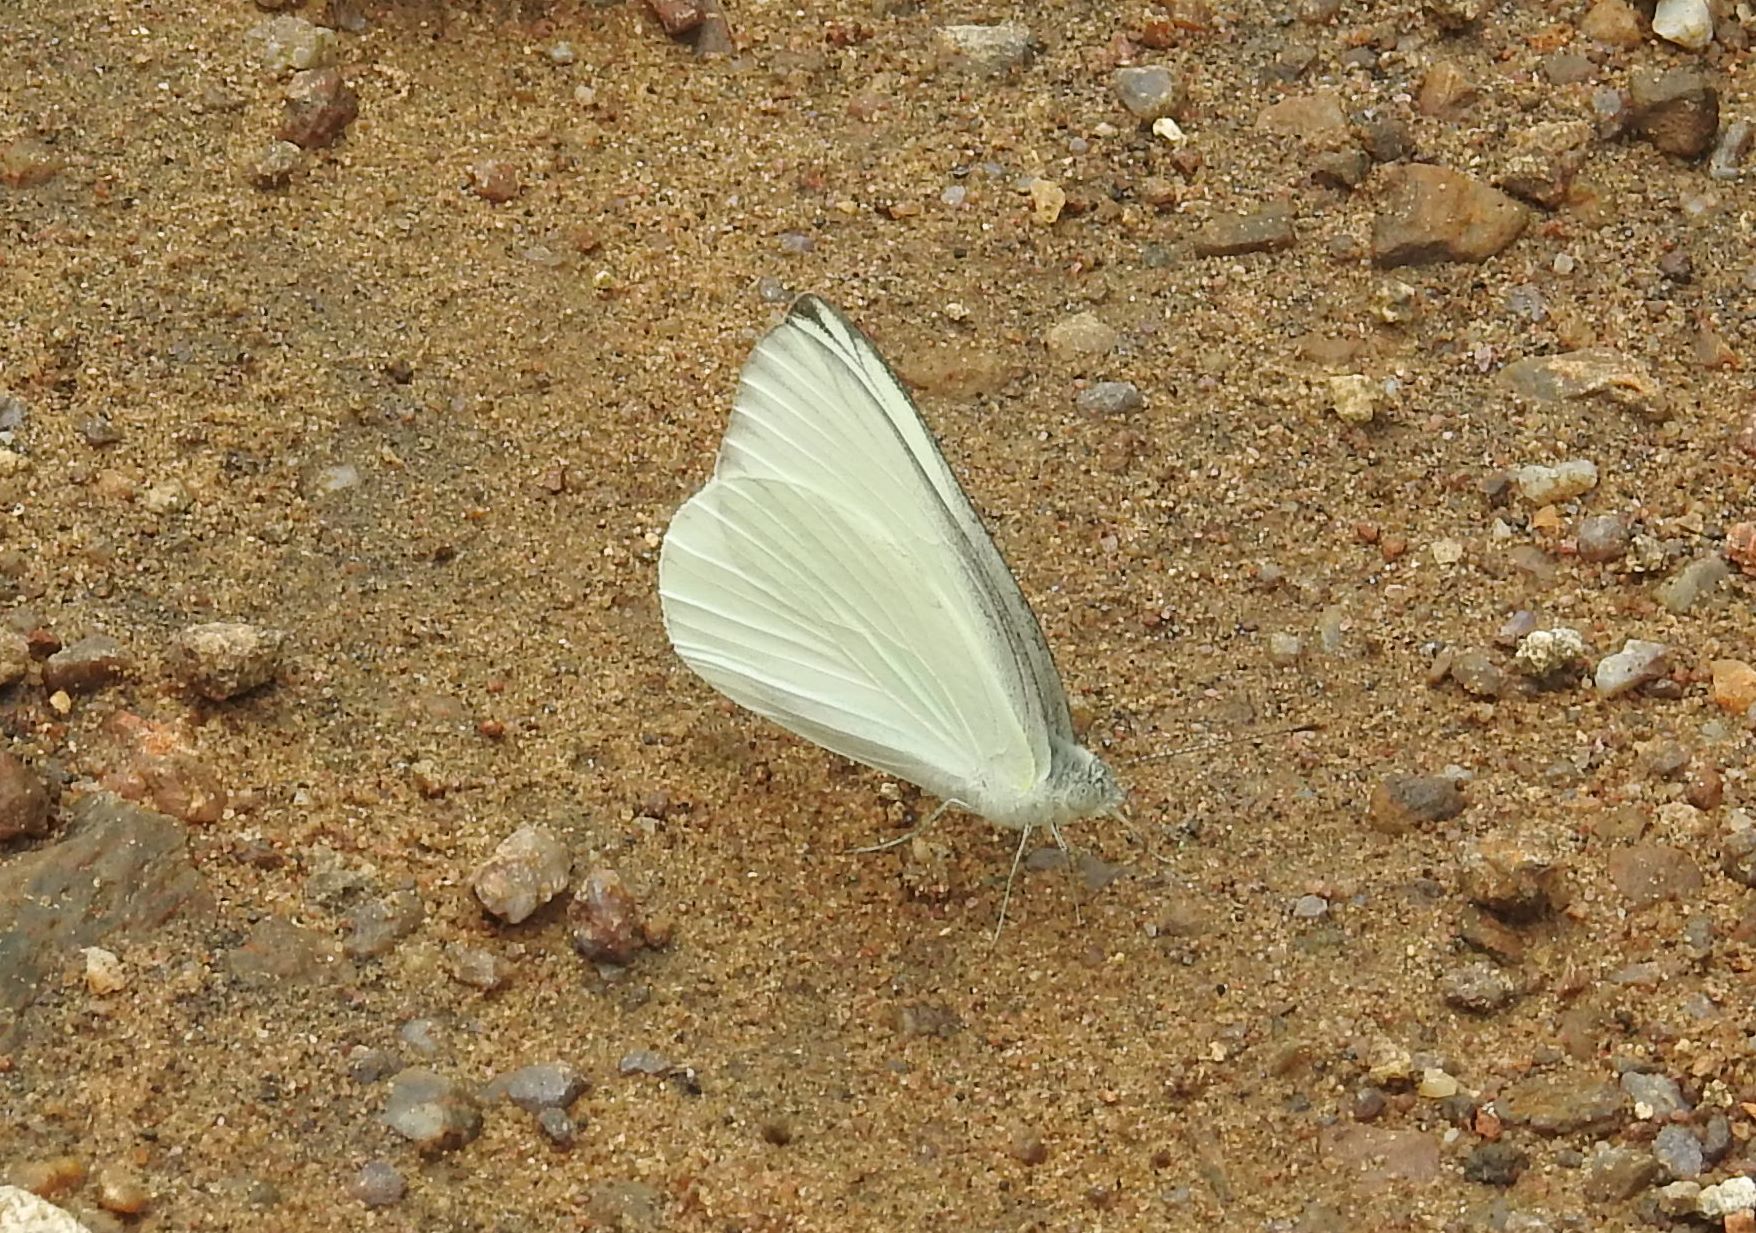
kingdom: Animalia
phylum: Arthropoda
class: Insecta
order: Lepidoptera
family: Pieridae
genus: Appias
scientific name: Appias albina
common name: Common albatross
